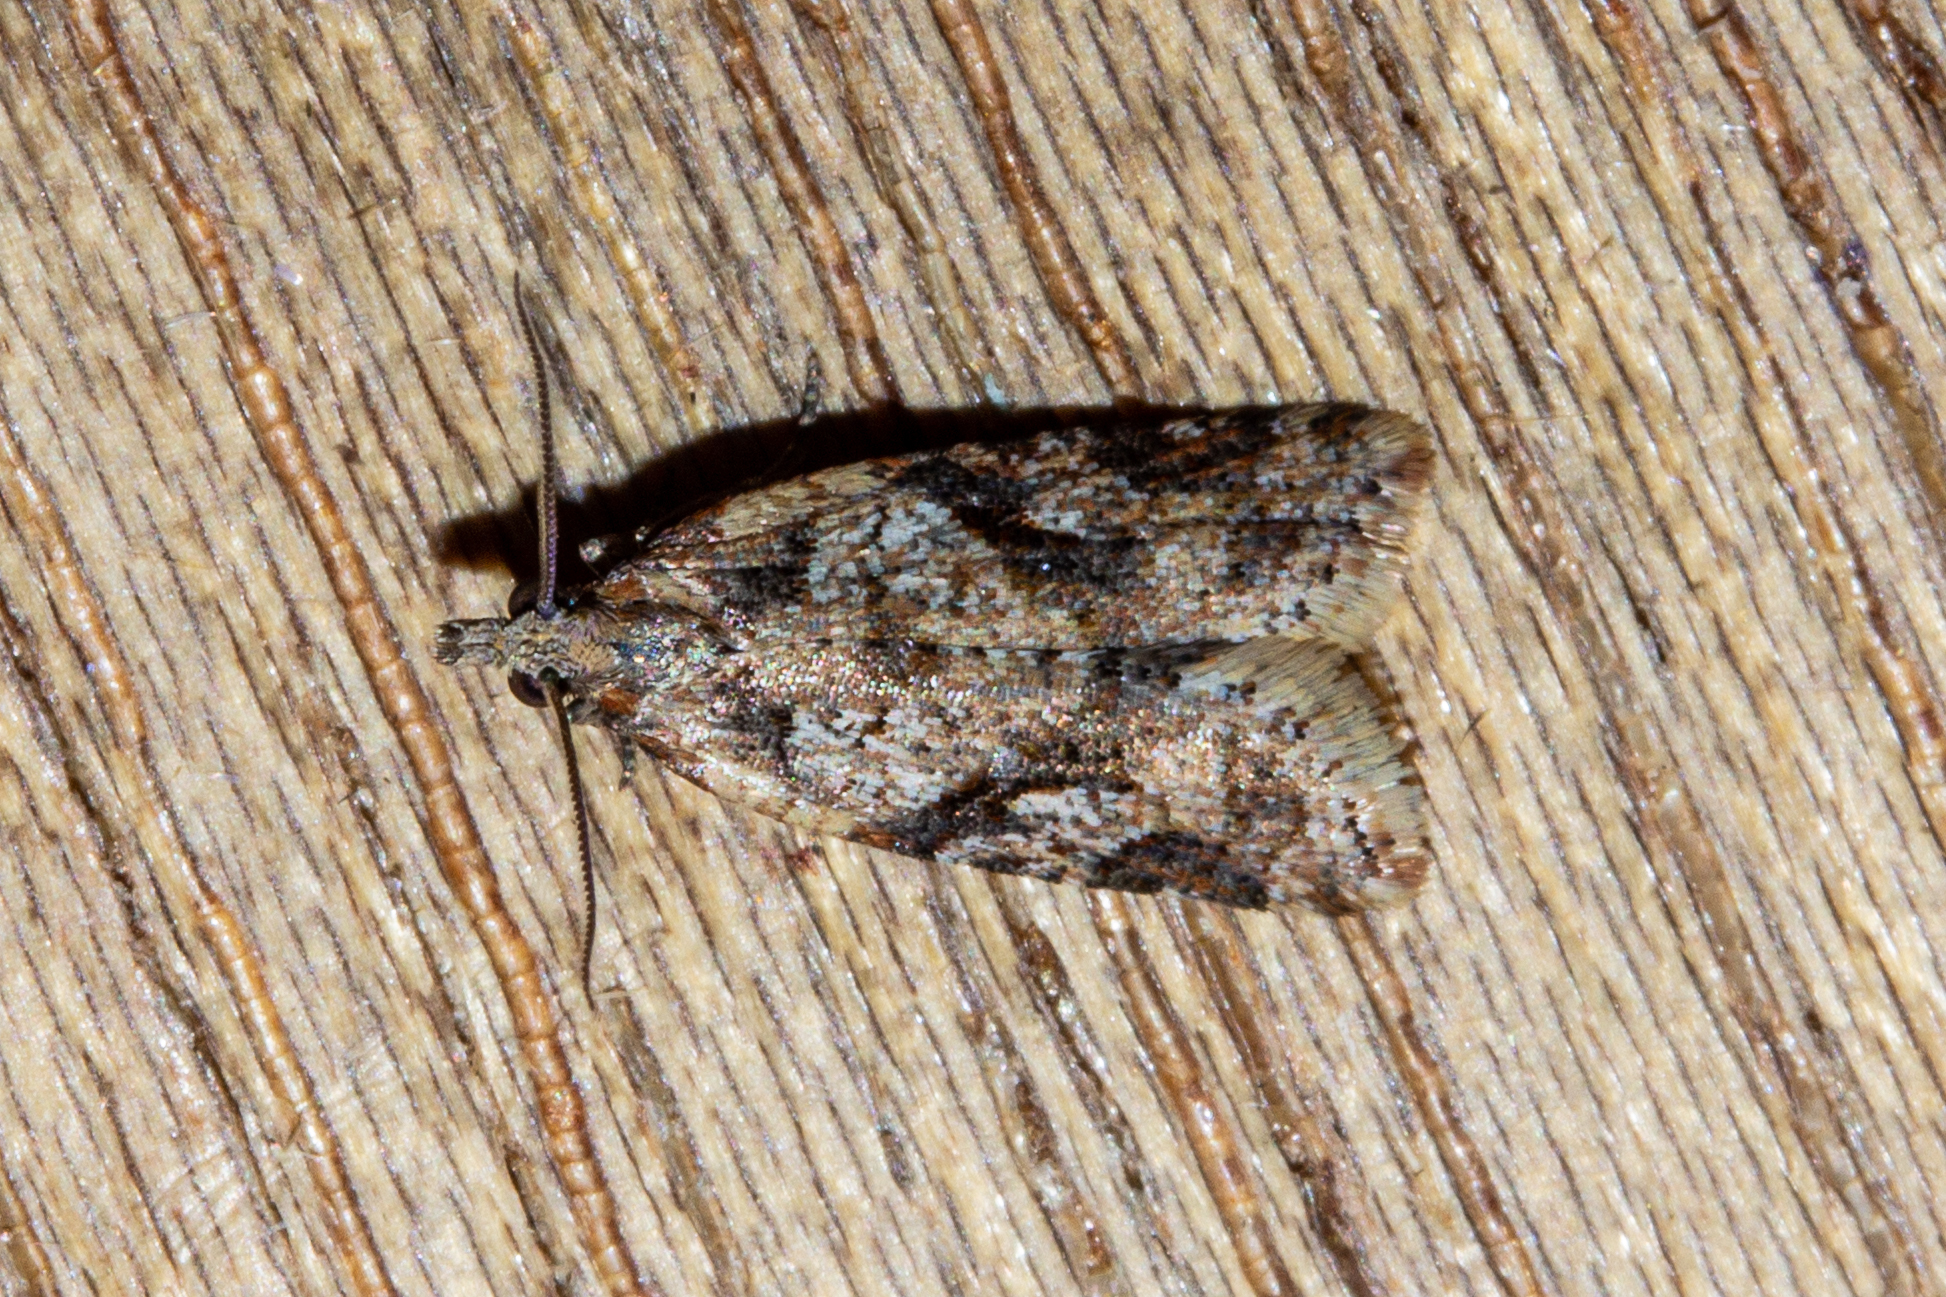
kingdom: Animalia
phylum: Arthropoda
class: Insecta
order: Lepidoptera
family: Tortricidae
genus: Capua
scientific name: Capua semiferana
